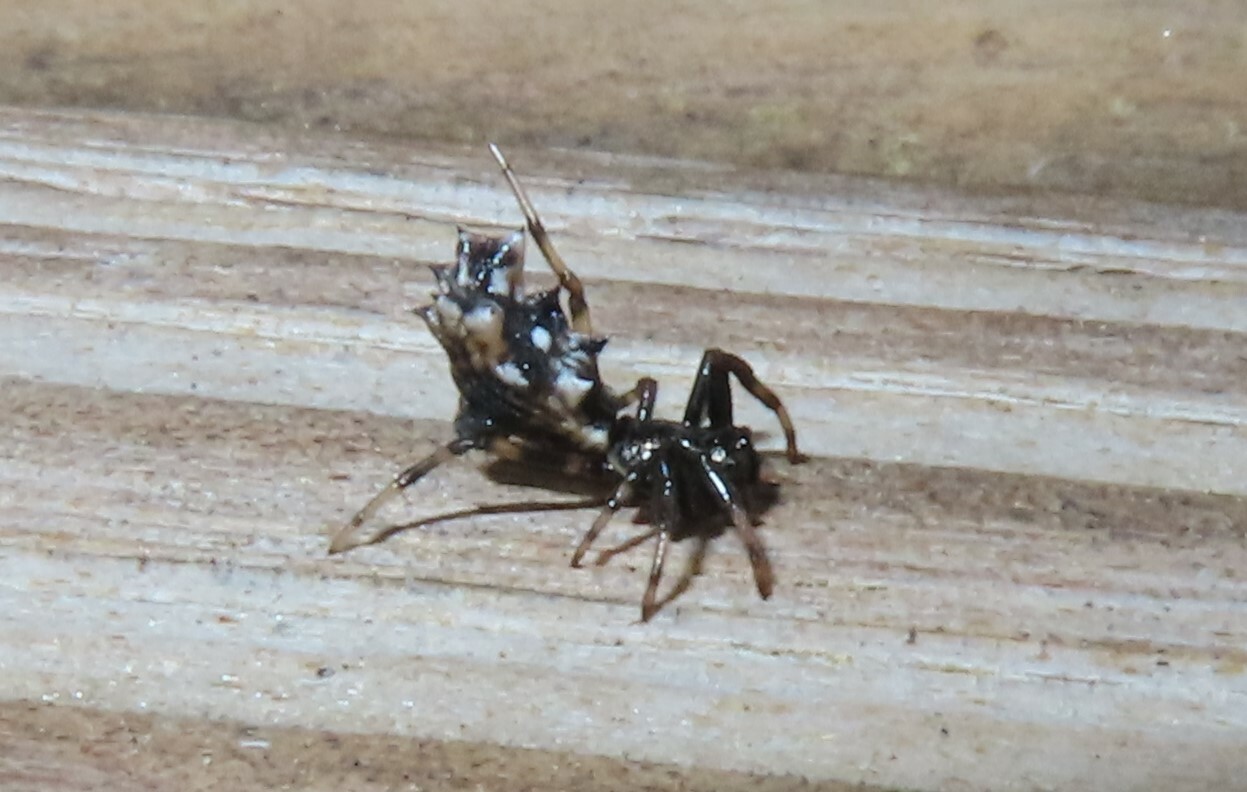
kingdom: Animalia
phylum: Arthropoda
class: Arachnida
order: Araneae
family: Araneidae
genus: Micrathena
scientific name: Micrathena gracilis
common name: Orb weavers
